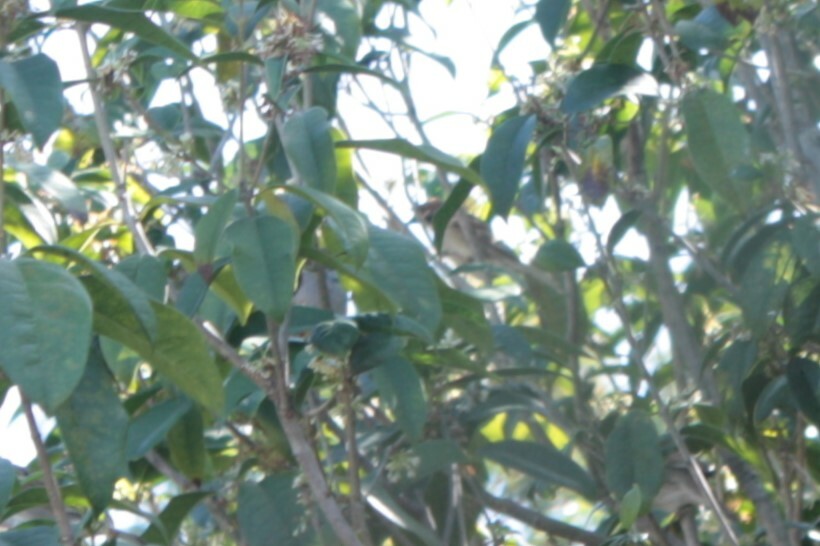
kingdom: Animalia
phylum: Chordata
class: Aves
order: Passeriformes
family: Passeridae
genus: Passer
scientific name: Passer montanus
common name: Eurasian tree sparrow
